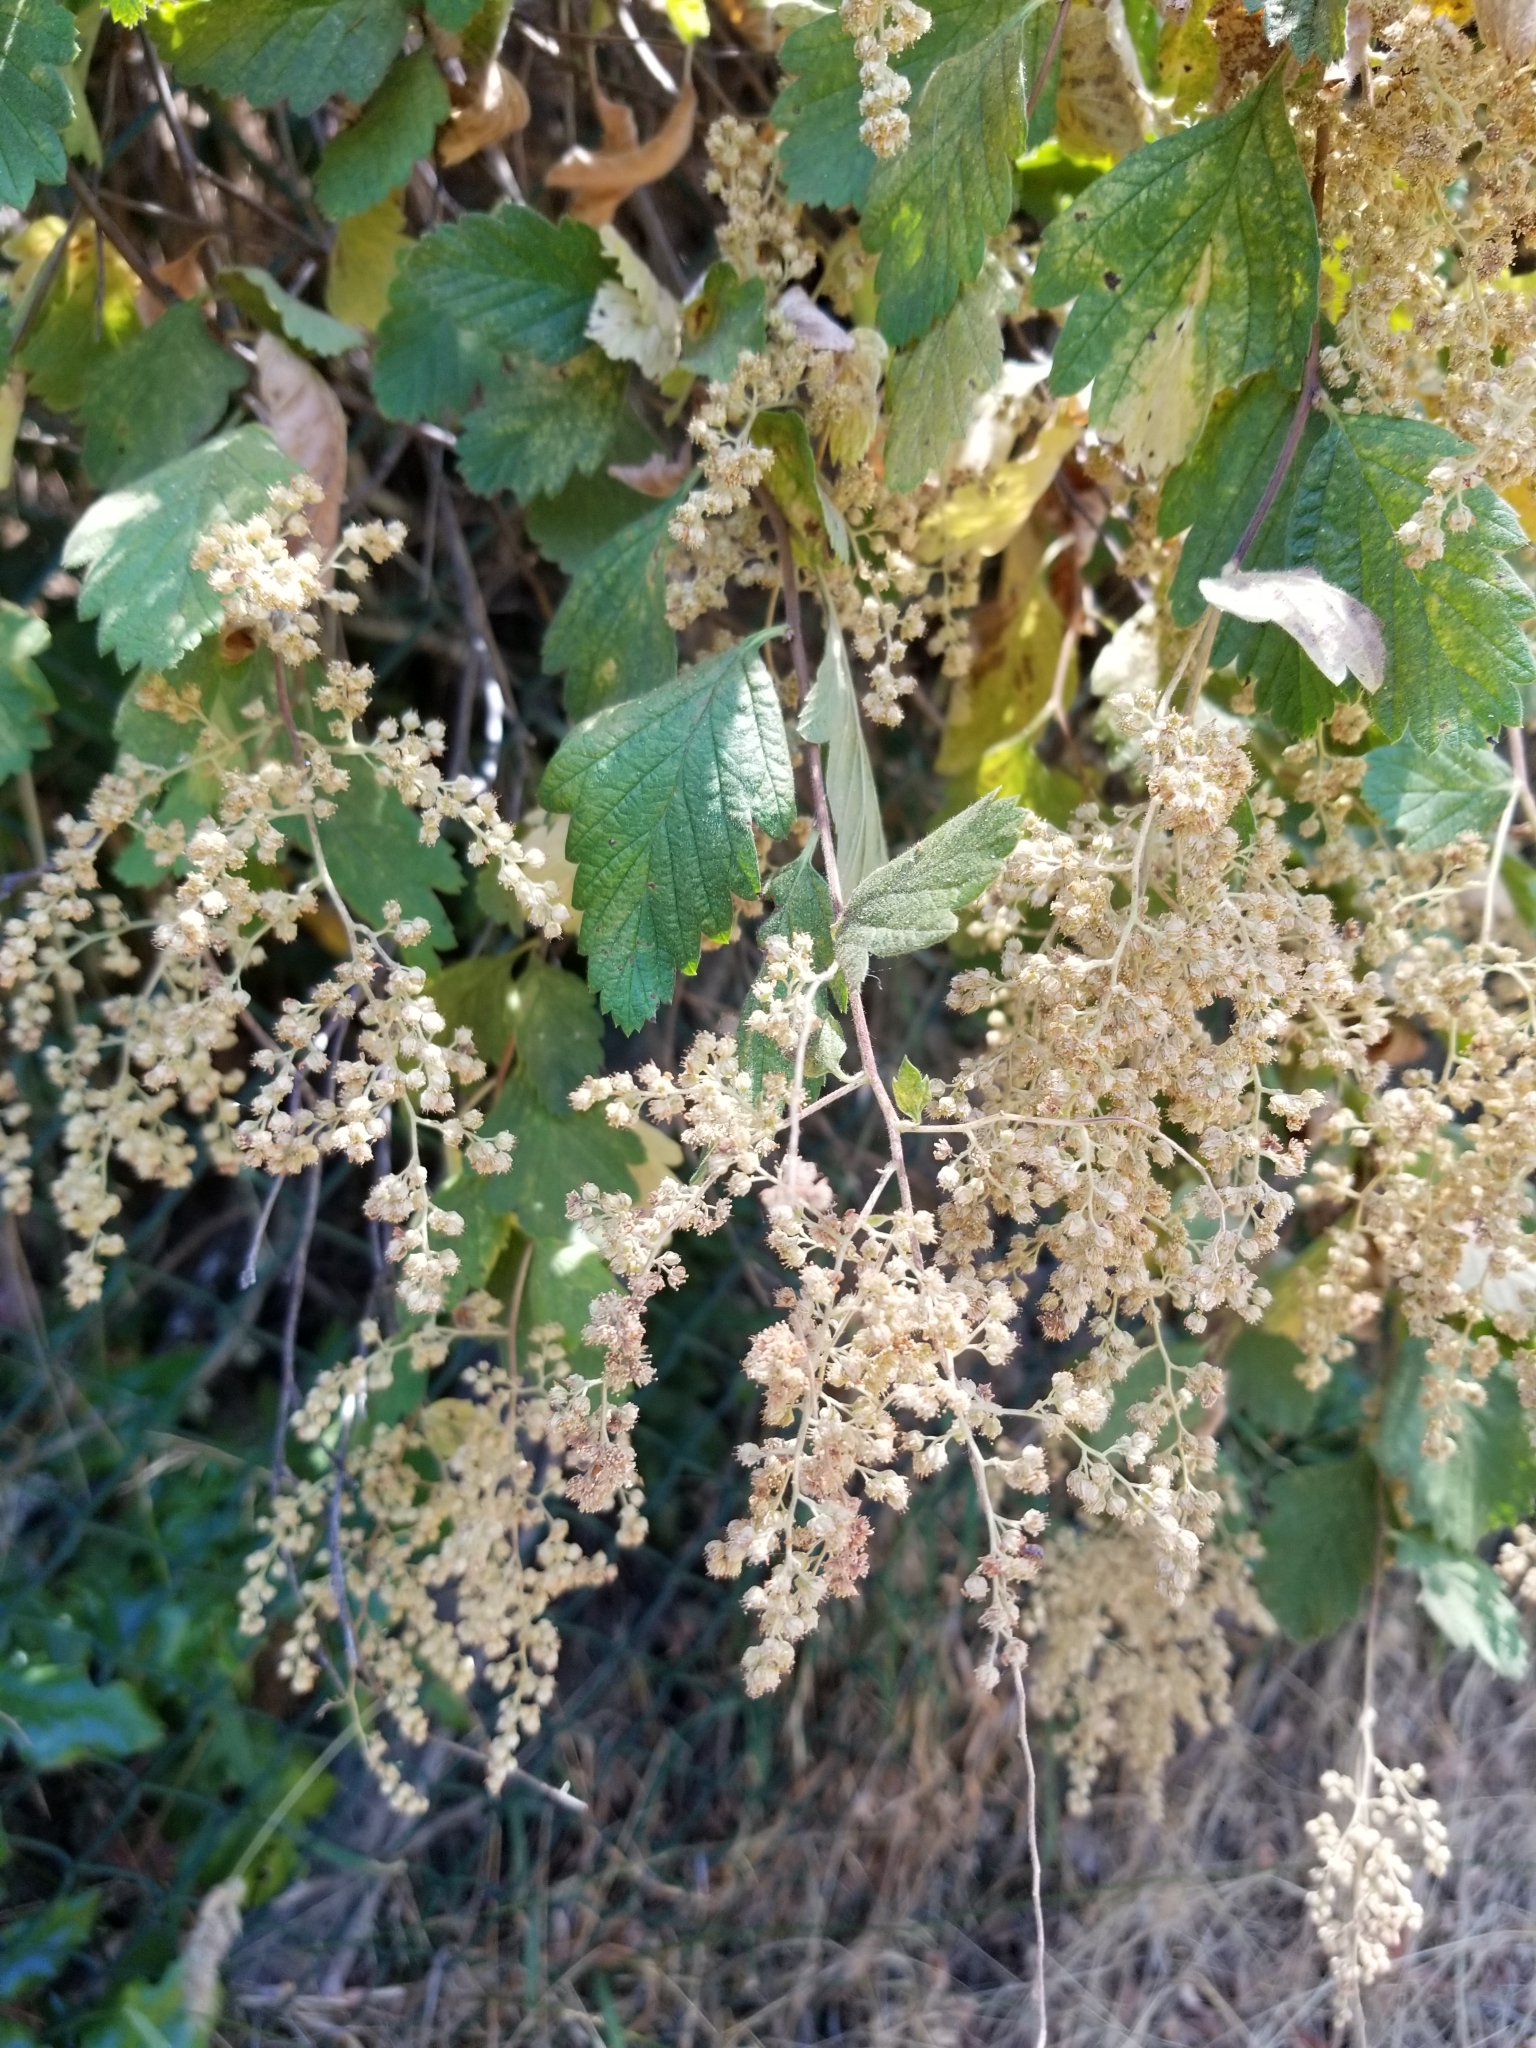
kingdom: Plantae
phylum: Tracheophyta
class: Magnoliopsida
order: Rosales
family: Rosaceae
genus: Holodiscus
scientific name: Holodiscus discolor
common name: Oceanspray
